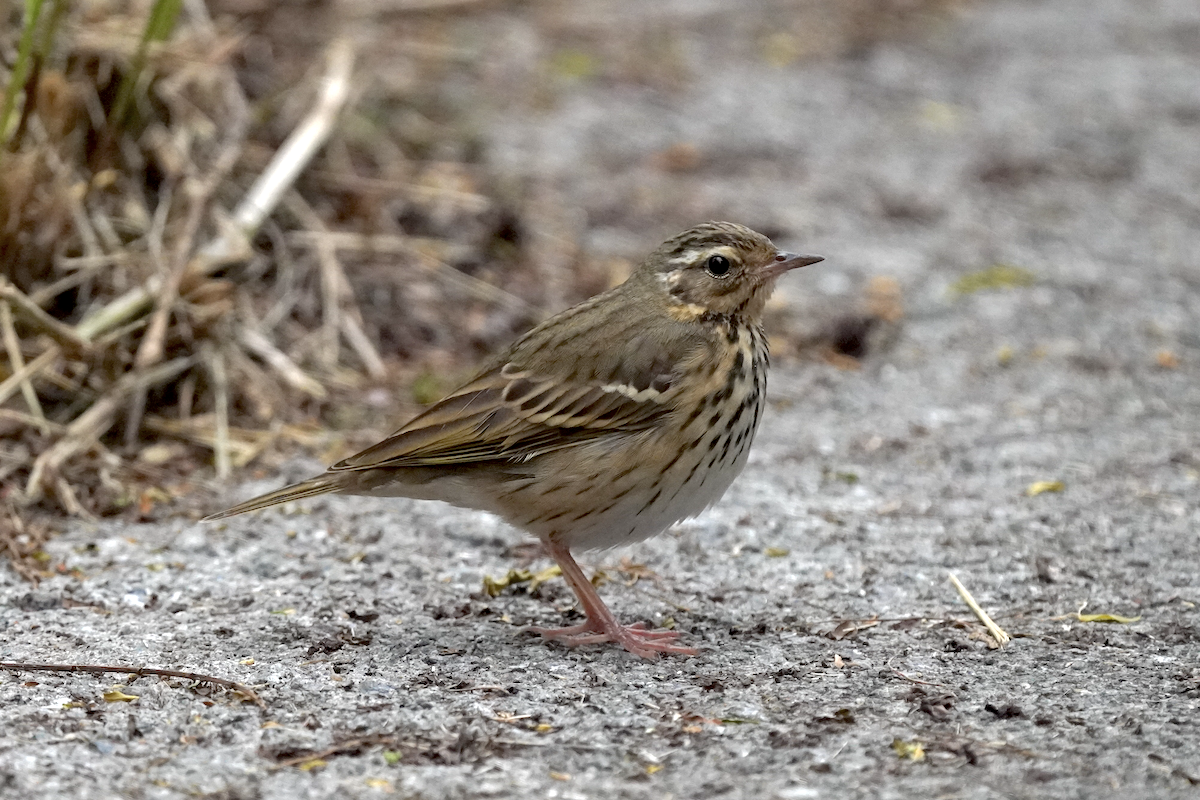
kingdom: Animalia
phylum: Chordata
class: Aves
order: Passeriformes
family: Motacillidae
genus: Anthus
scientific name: Anthus hodgsoni
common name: Olive-backed pipit
